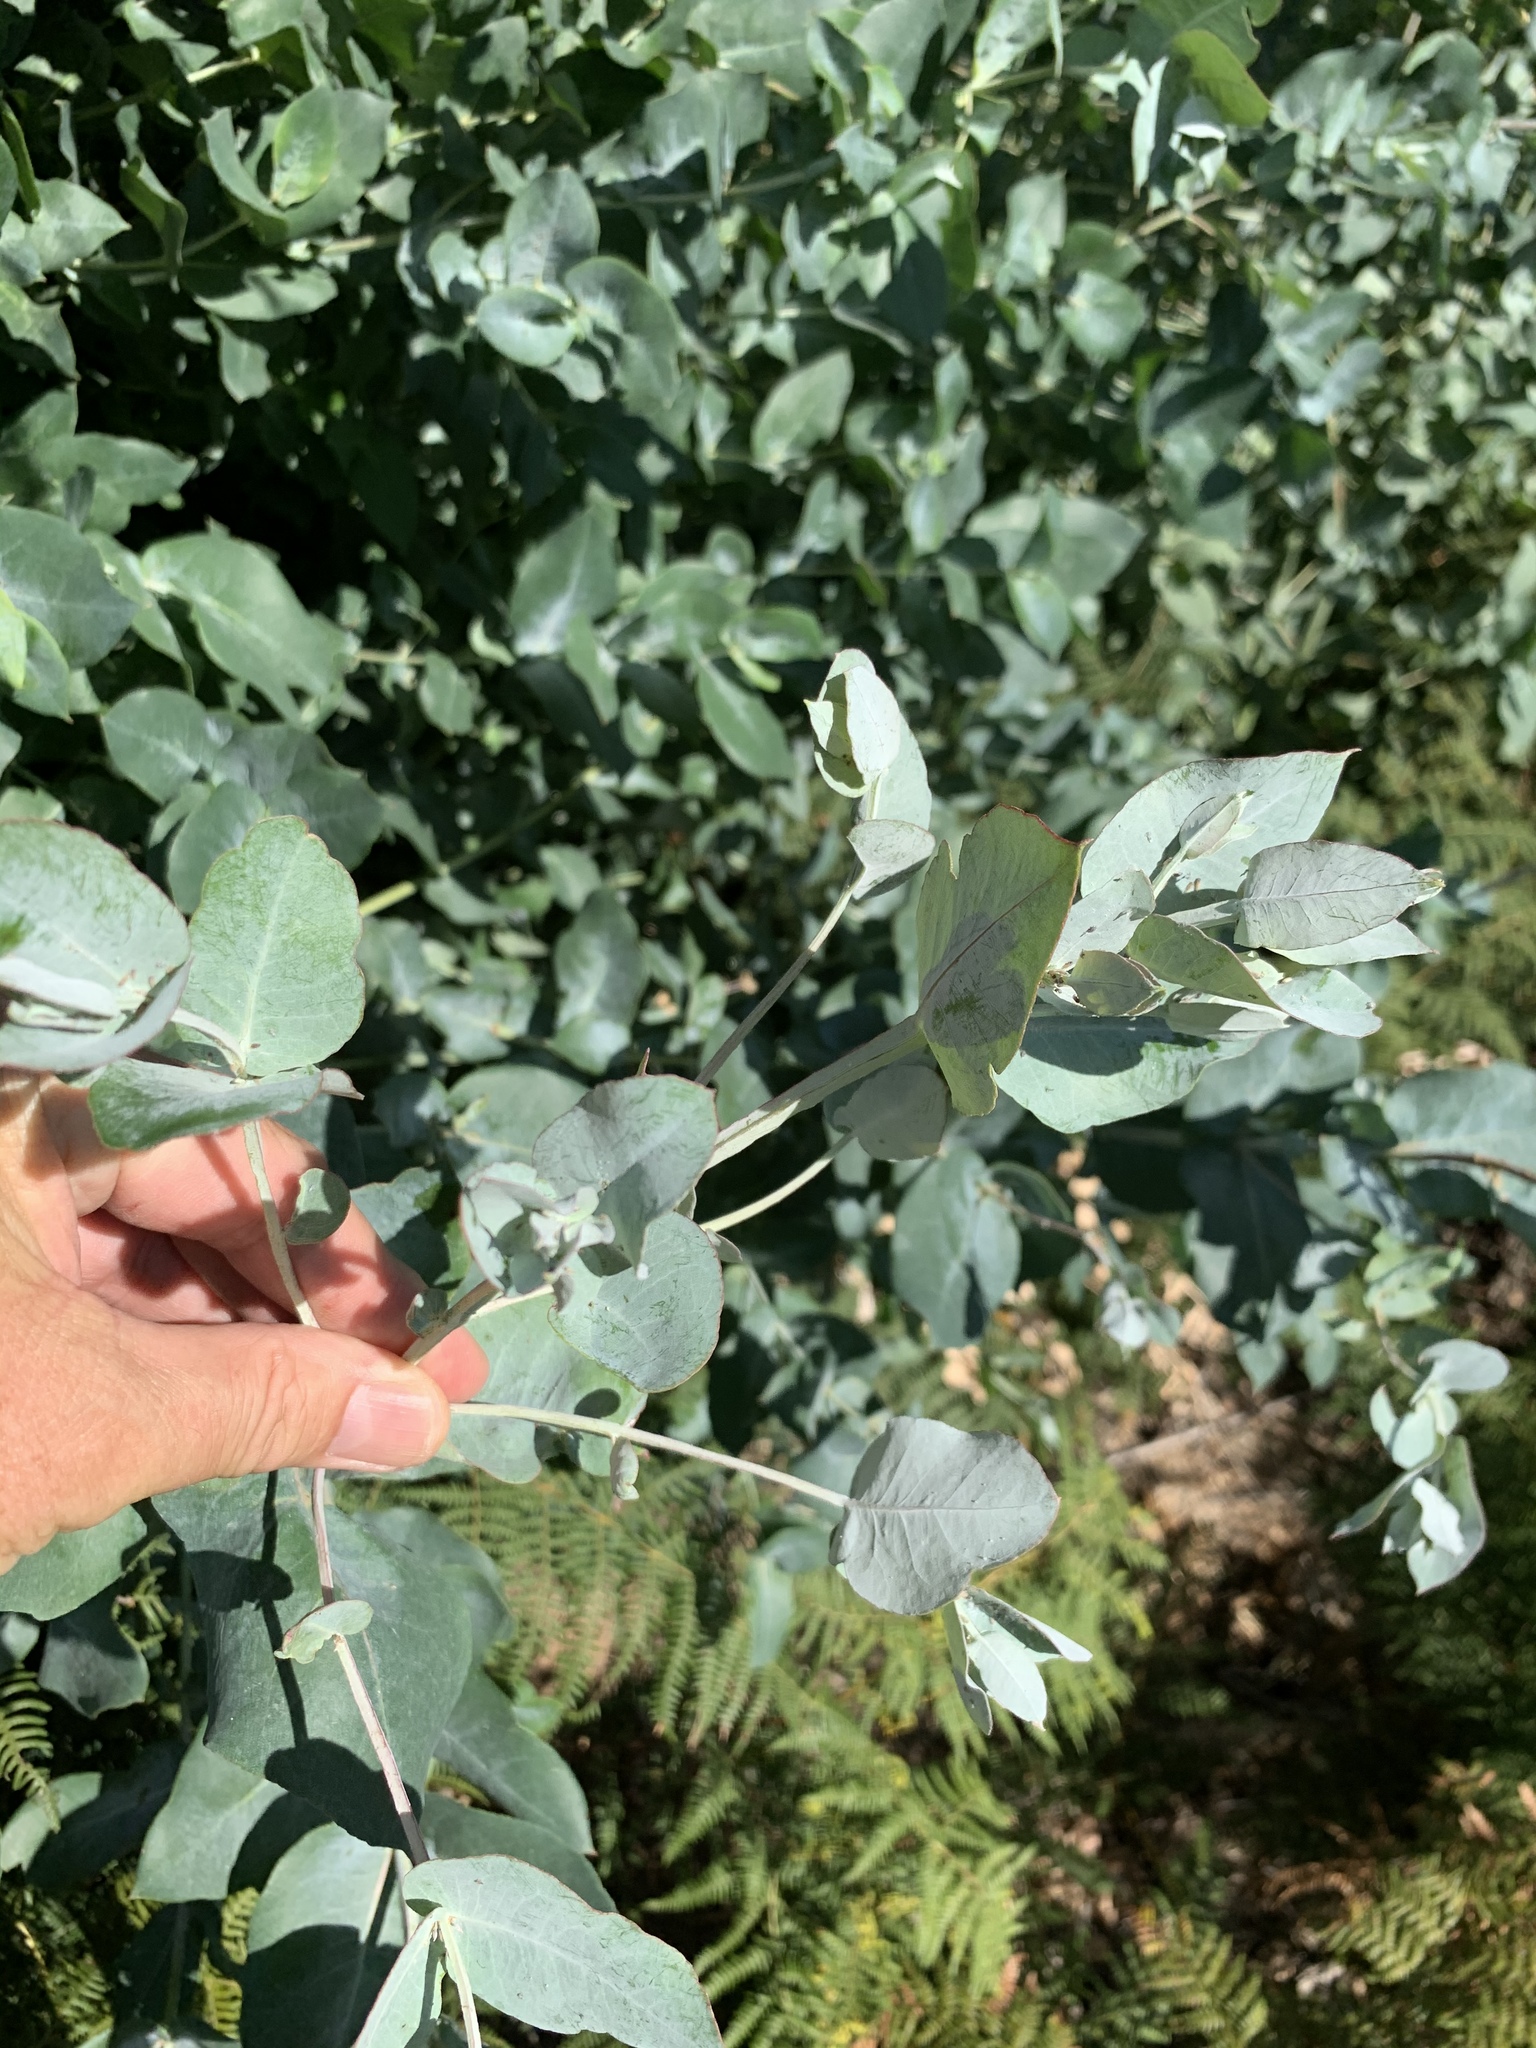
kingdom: Plantae
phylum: Tracheophyta
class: Magnoliopsida
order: Myrtales
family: Myrtaceae
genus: Eucalyptus
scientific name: Eucalyptus cinerea
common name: Argyle apple
